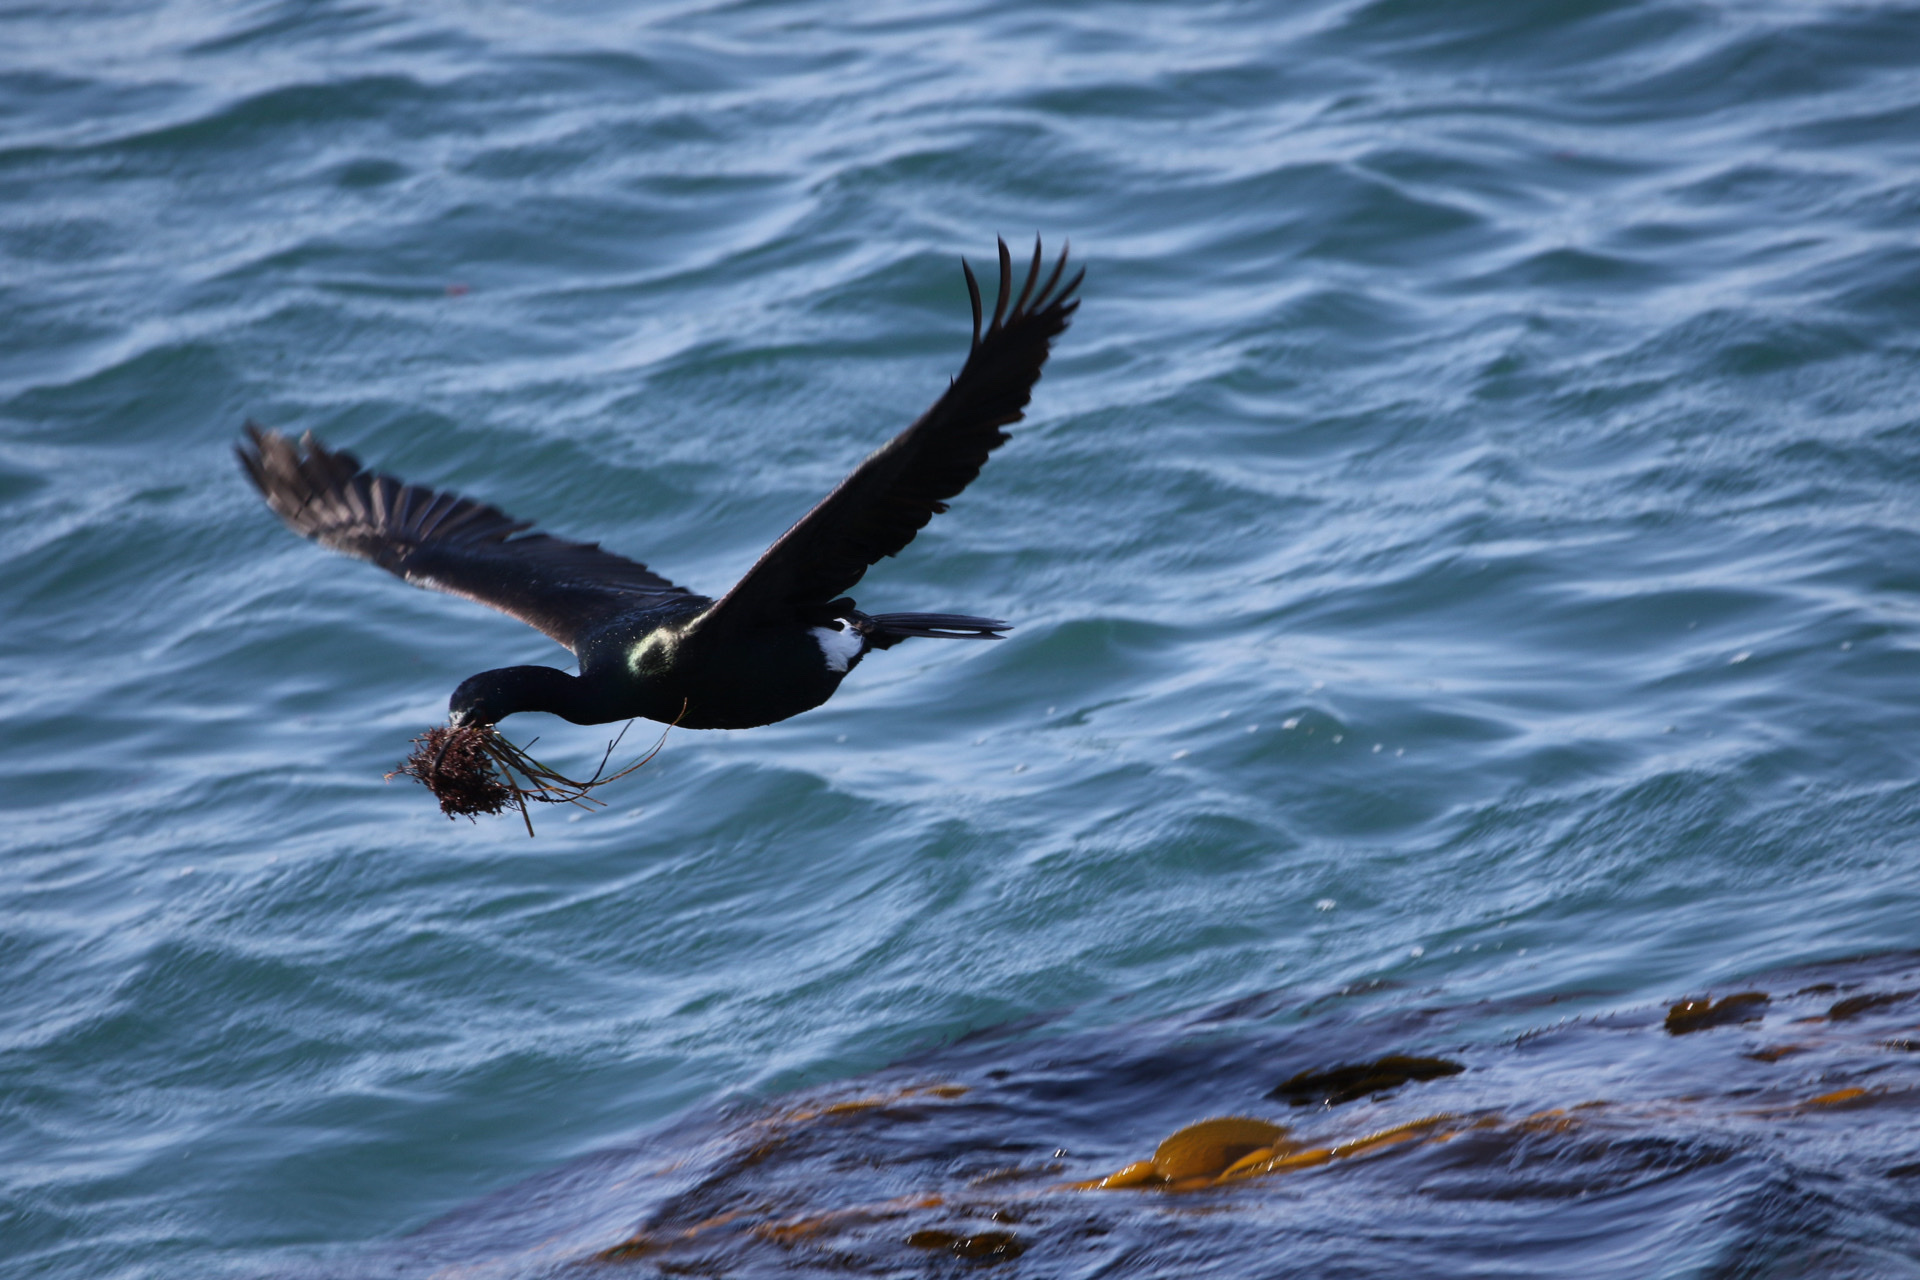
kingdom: Animalia
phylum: Chordata
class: Aves
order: Suliformes
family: Phalacrocoracidae
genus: Phalacrocorax
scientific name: Phalacrocorax pelagicus
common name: Pelagic cormorant
